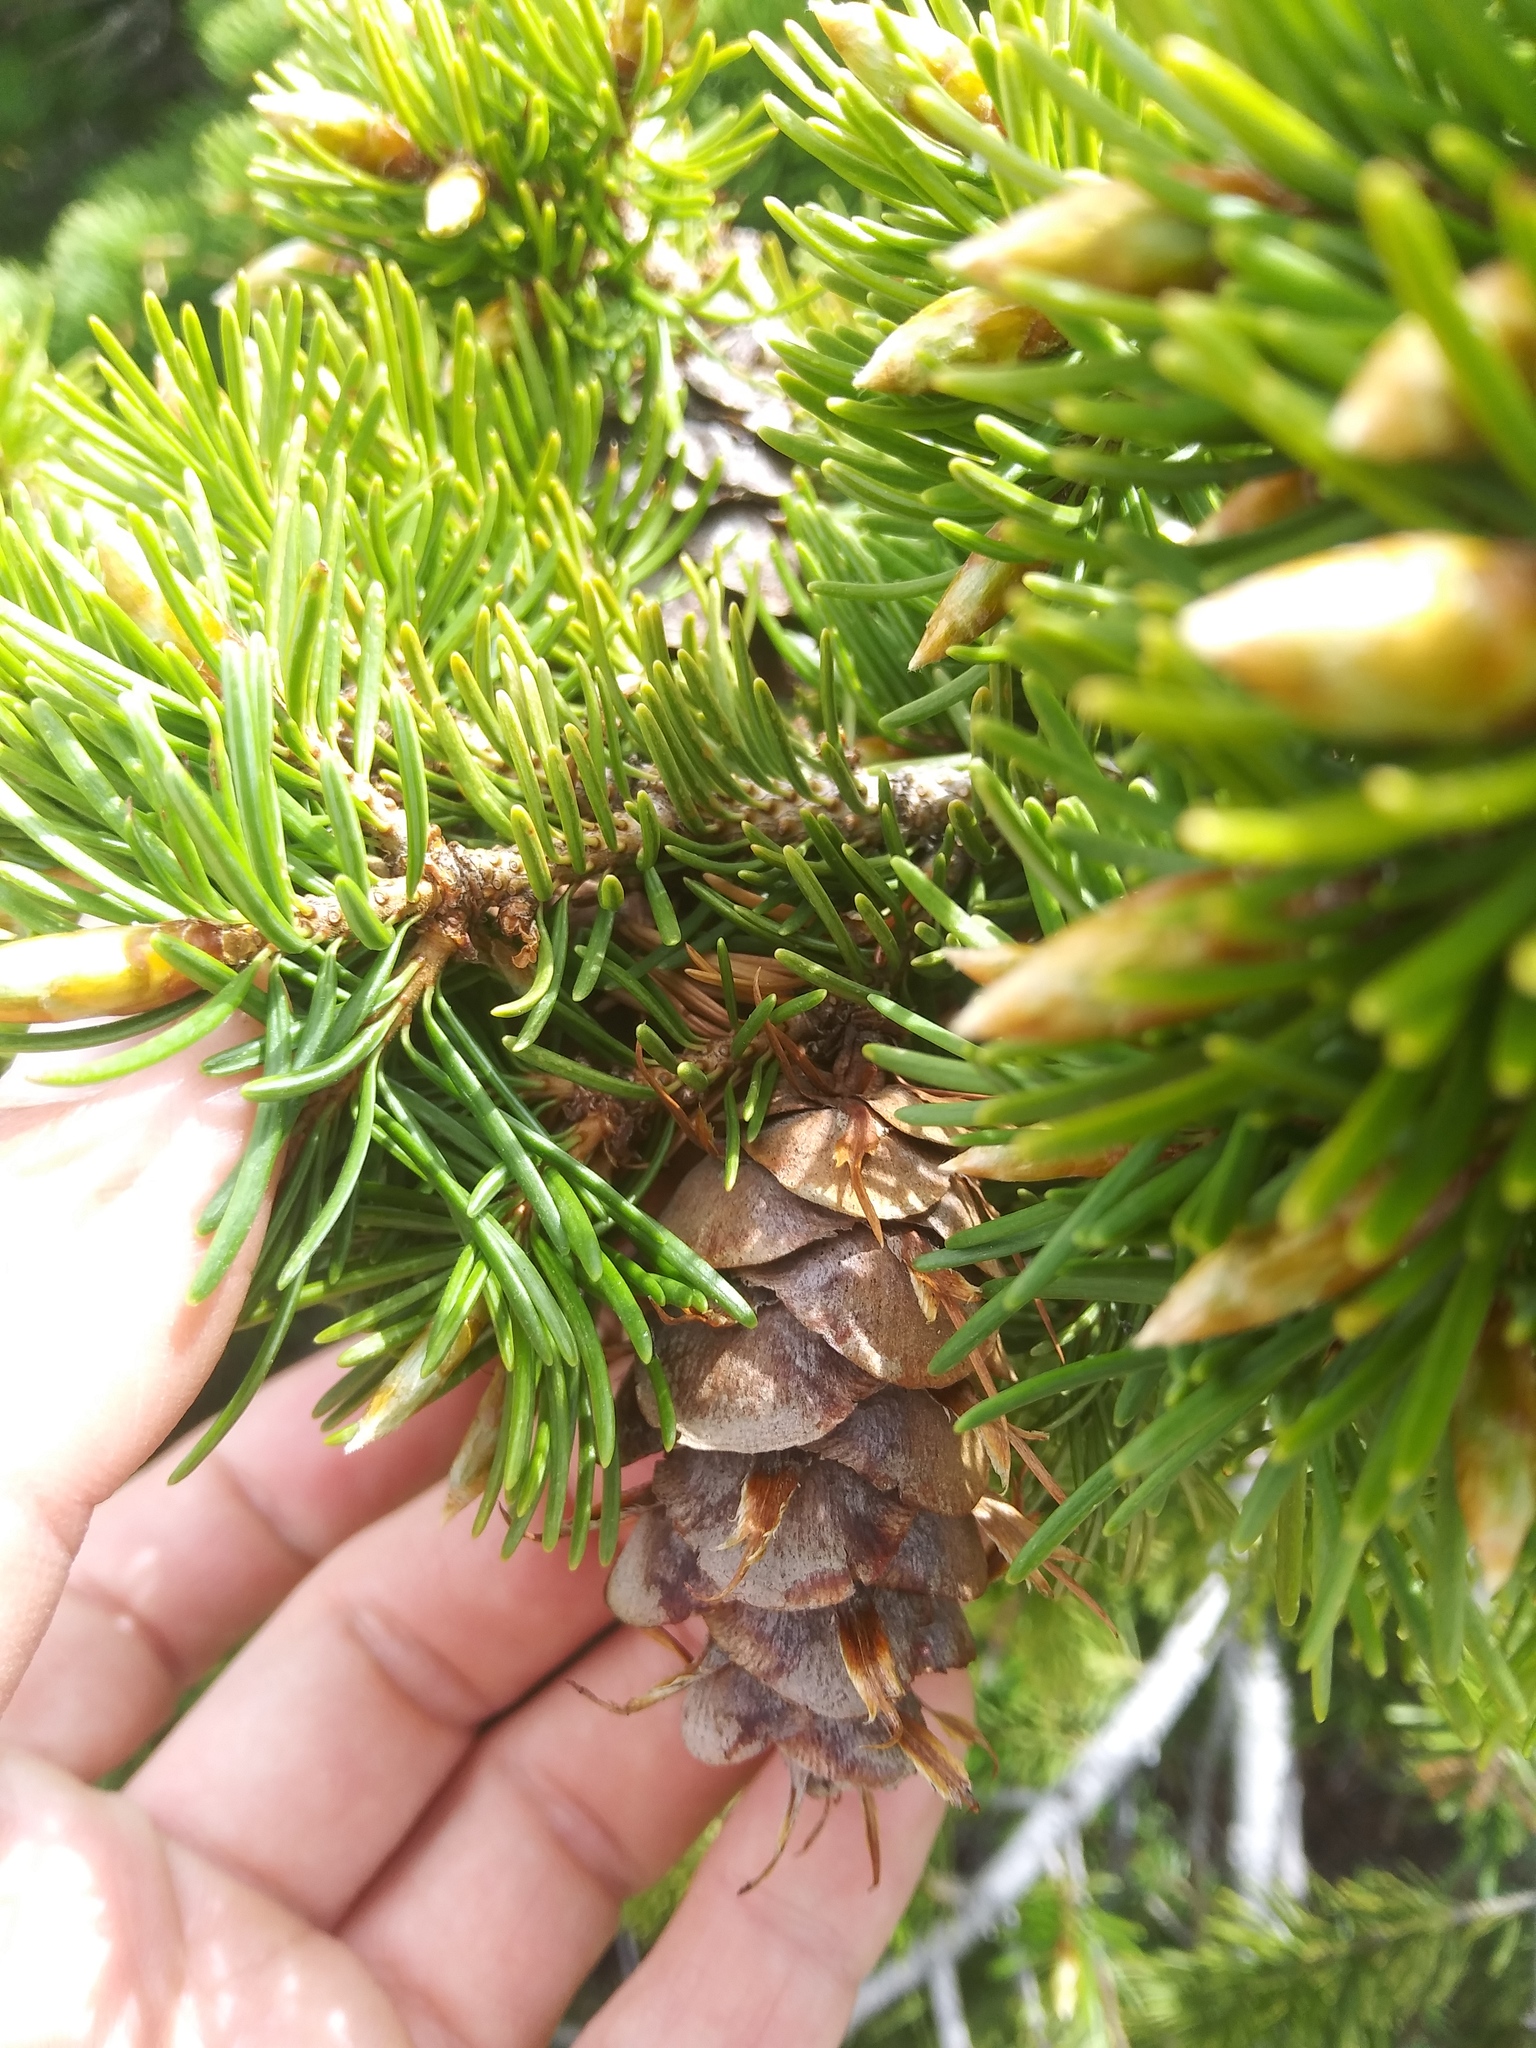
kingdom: Plantae
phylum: Tracheophyta
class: Pinopsida
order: Pinales
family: Pinaceae
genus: Pseudotsuga
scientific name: Pseudotsuga menziesii
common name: Douglas fir
